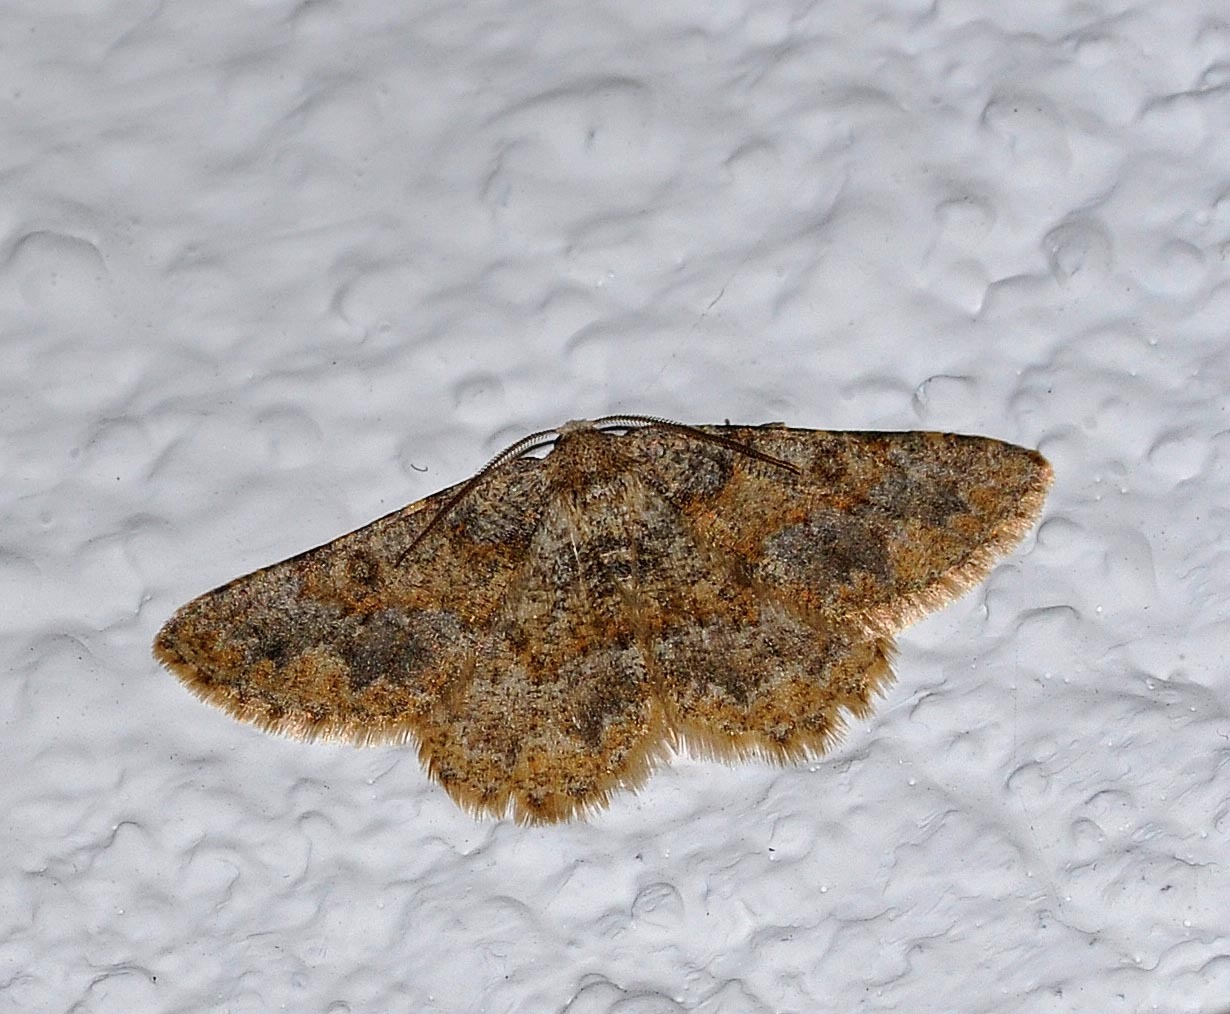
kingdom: Animalia
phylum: Arthropoda
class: Insecta
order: Lepidoptera
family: Geometridae
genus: Charissa
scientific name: Charissa mucidaria
